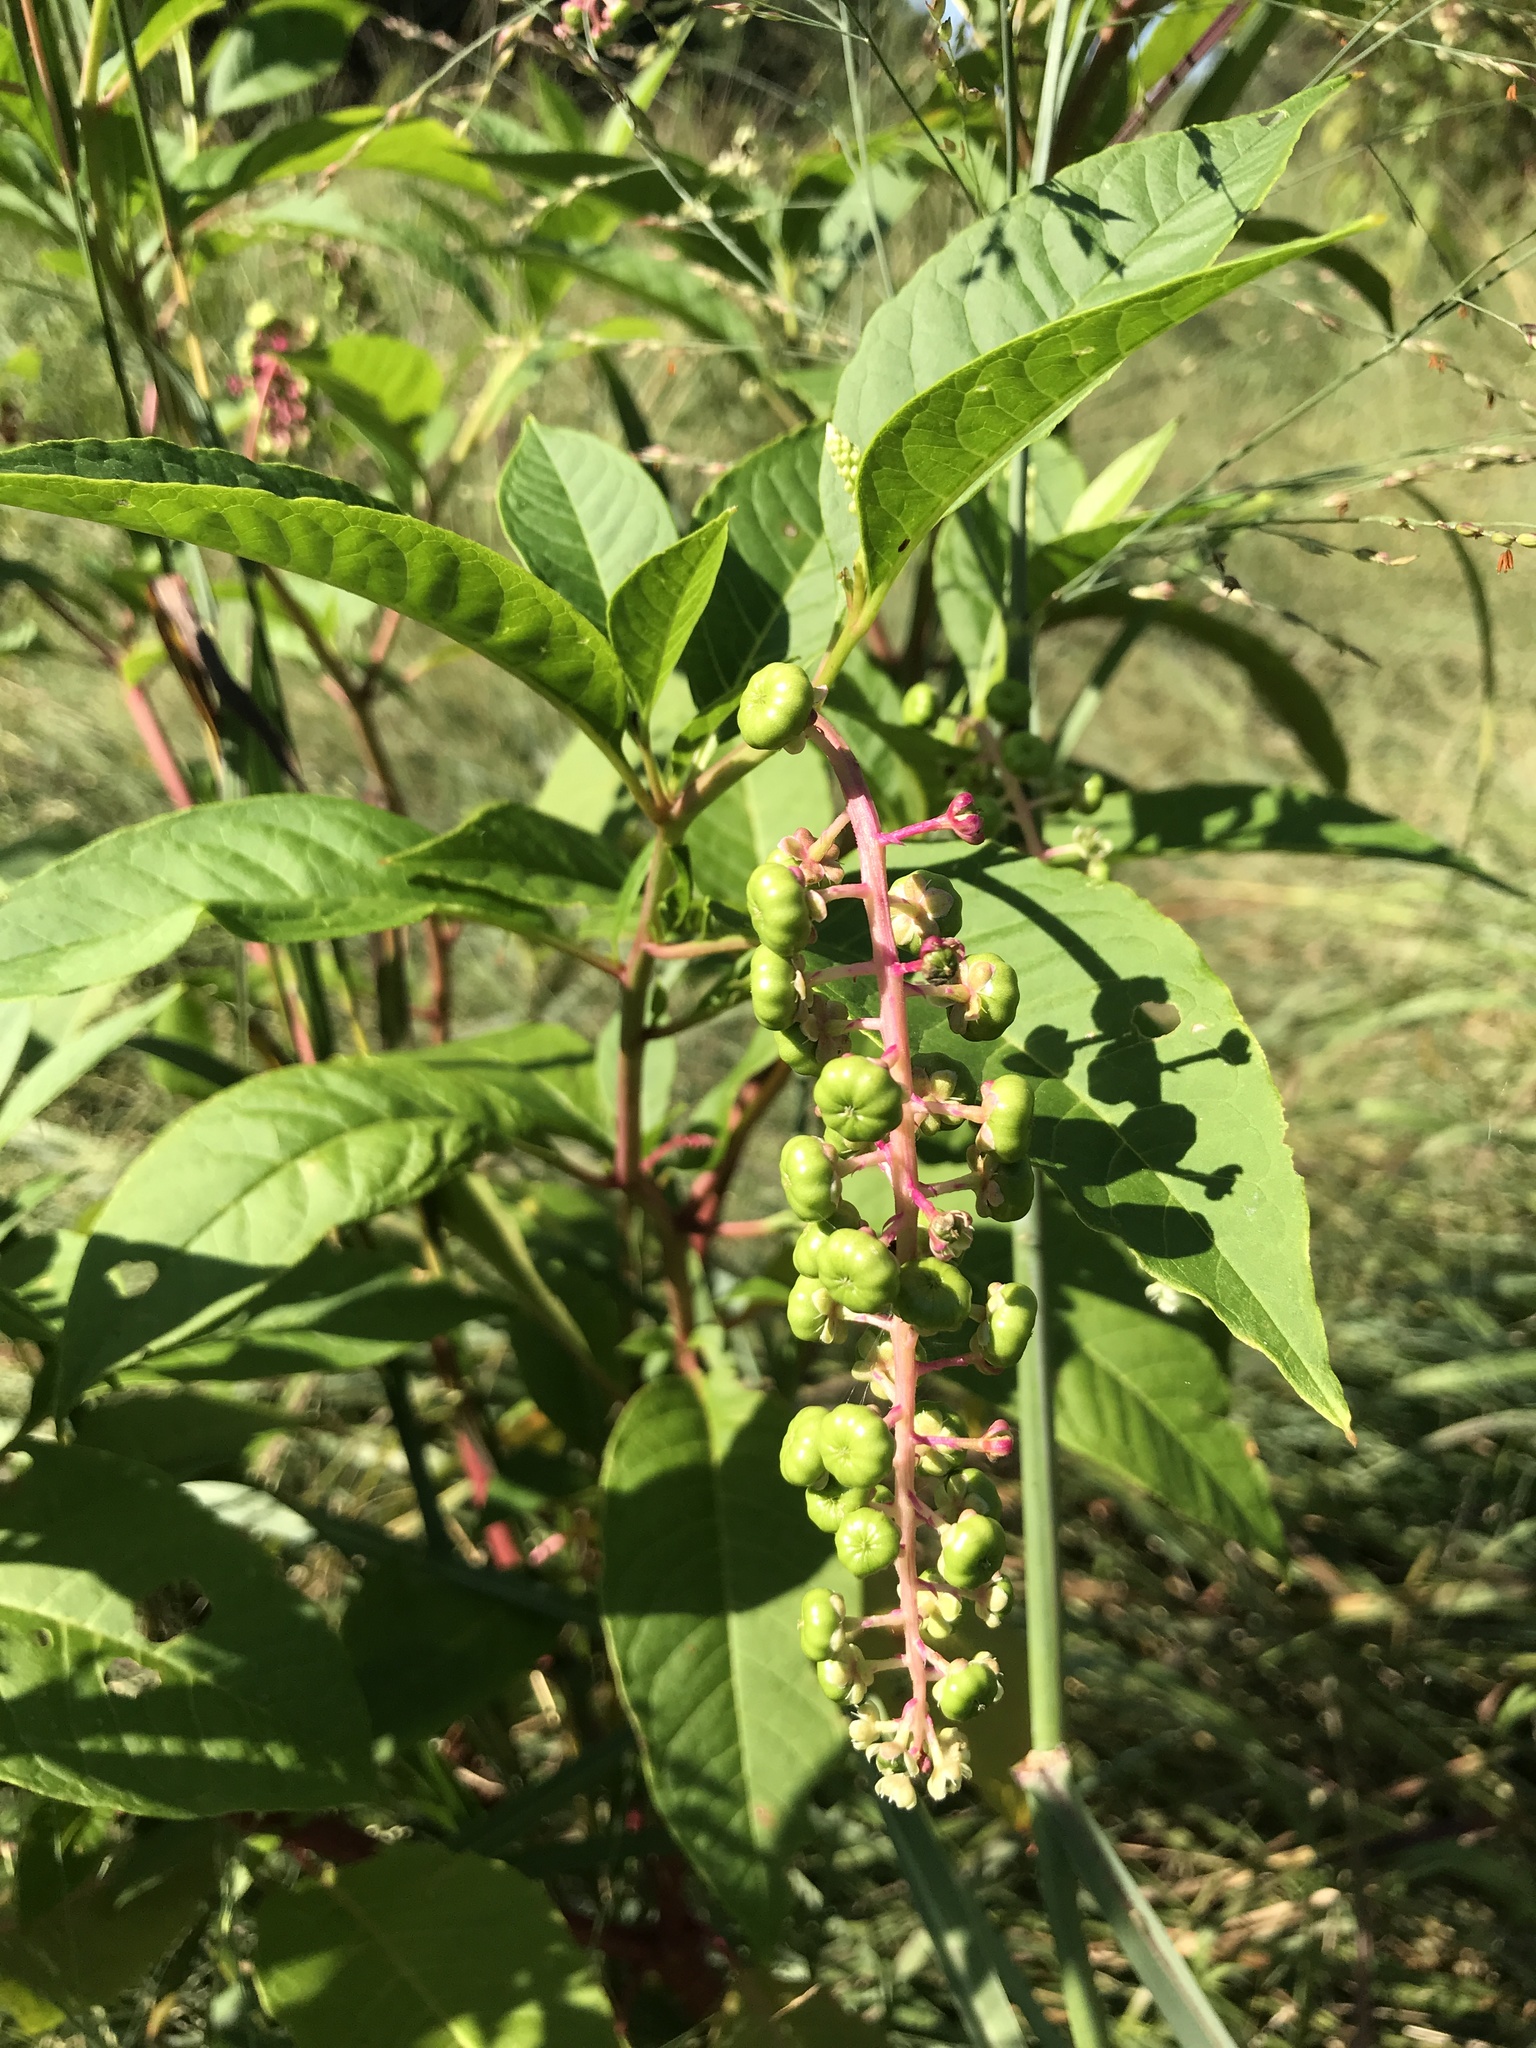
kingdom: Plantae
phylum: Tracheophyta
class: Magnoliopsida
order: Caryophyllales
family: Phytolaccaceae
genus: Phytolacca
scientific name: Phytolacca americana
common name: American pokeweed
